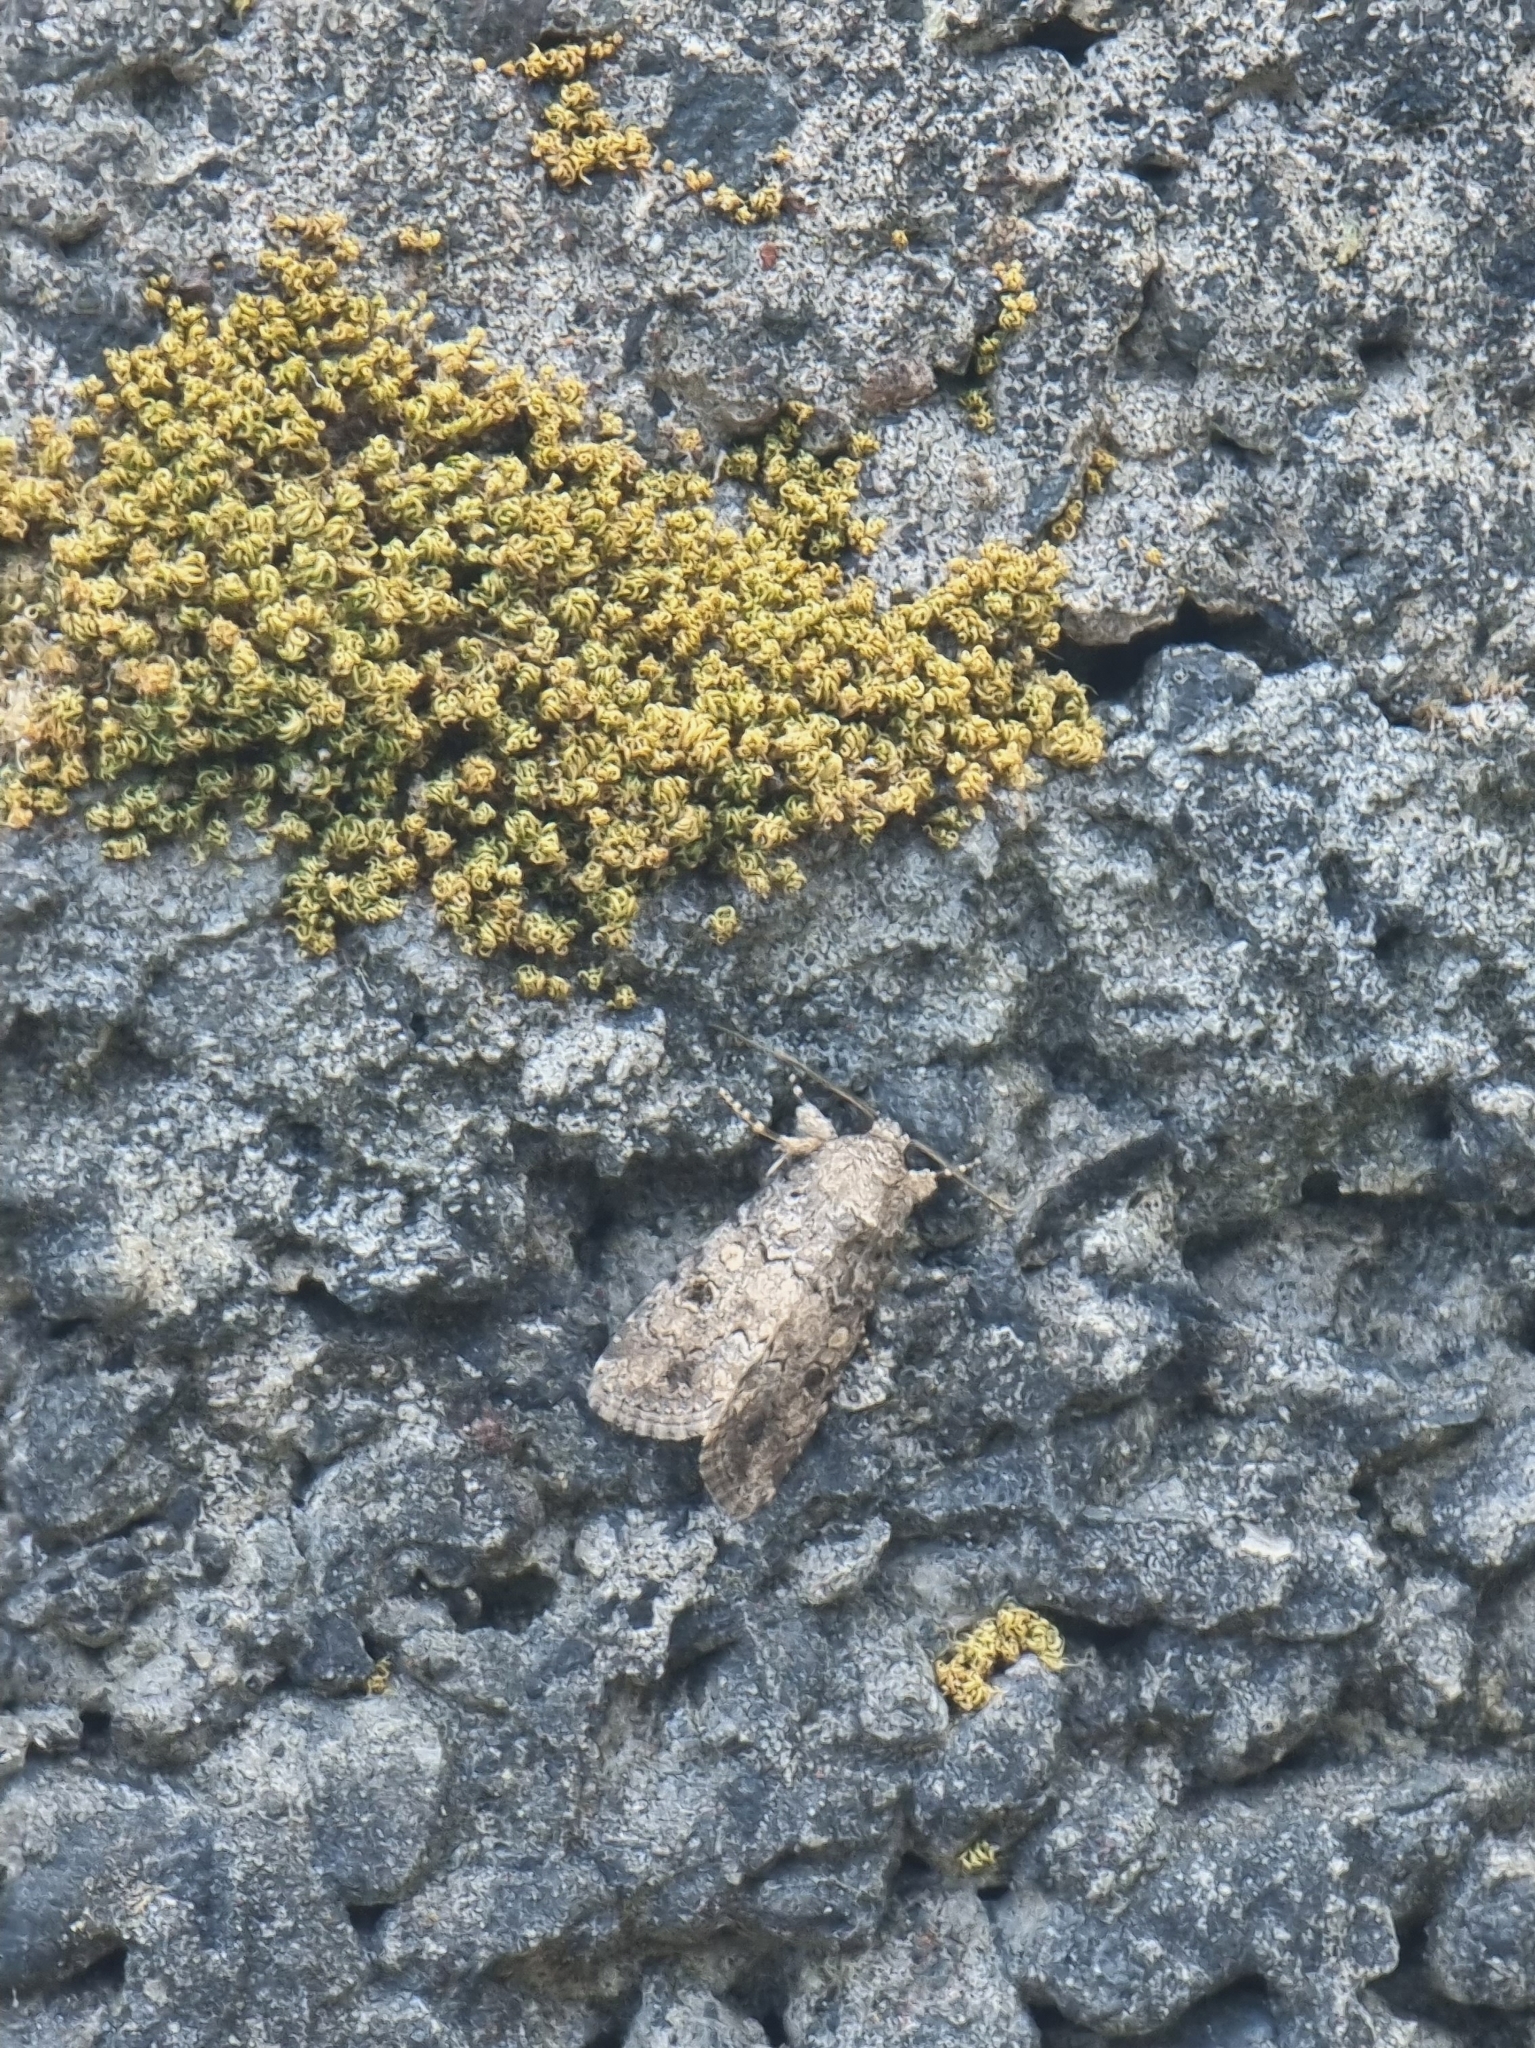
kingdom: Animalia
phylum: Arthropoda
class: Insecta
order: Lepidoptera
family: Noctuidae
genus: Spodoptera
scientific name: Spodoptera cilium
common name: Dark mottled willow
